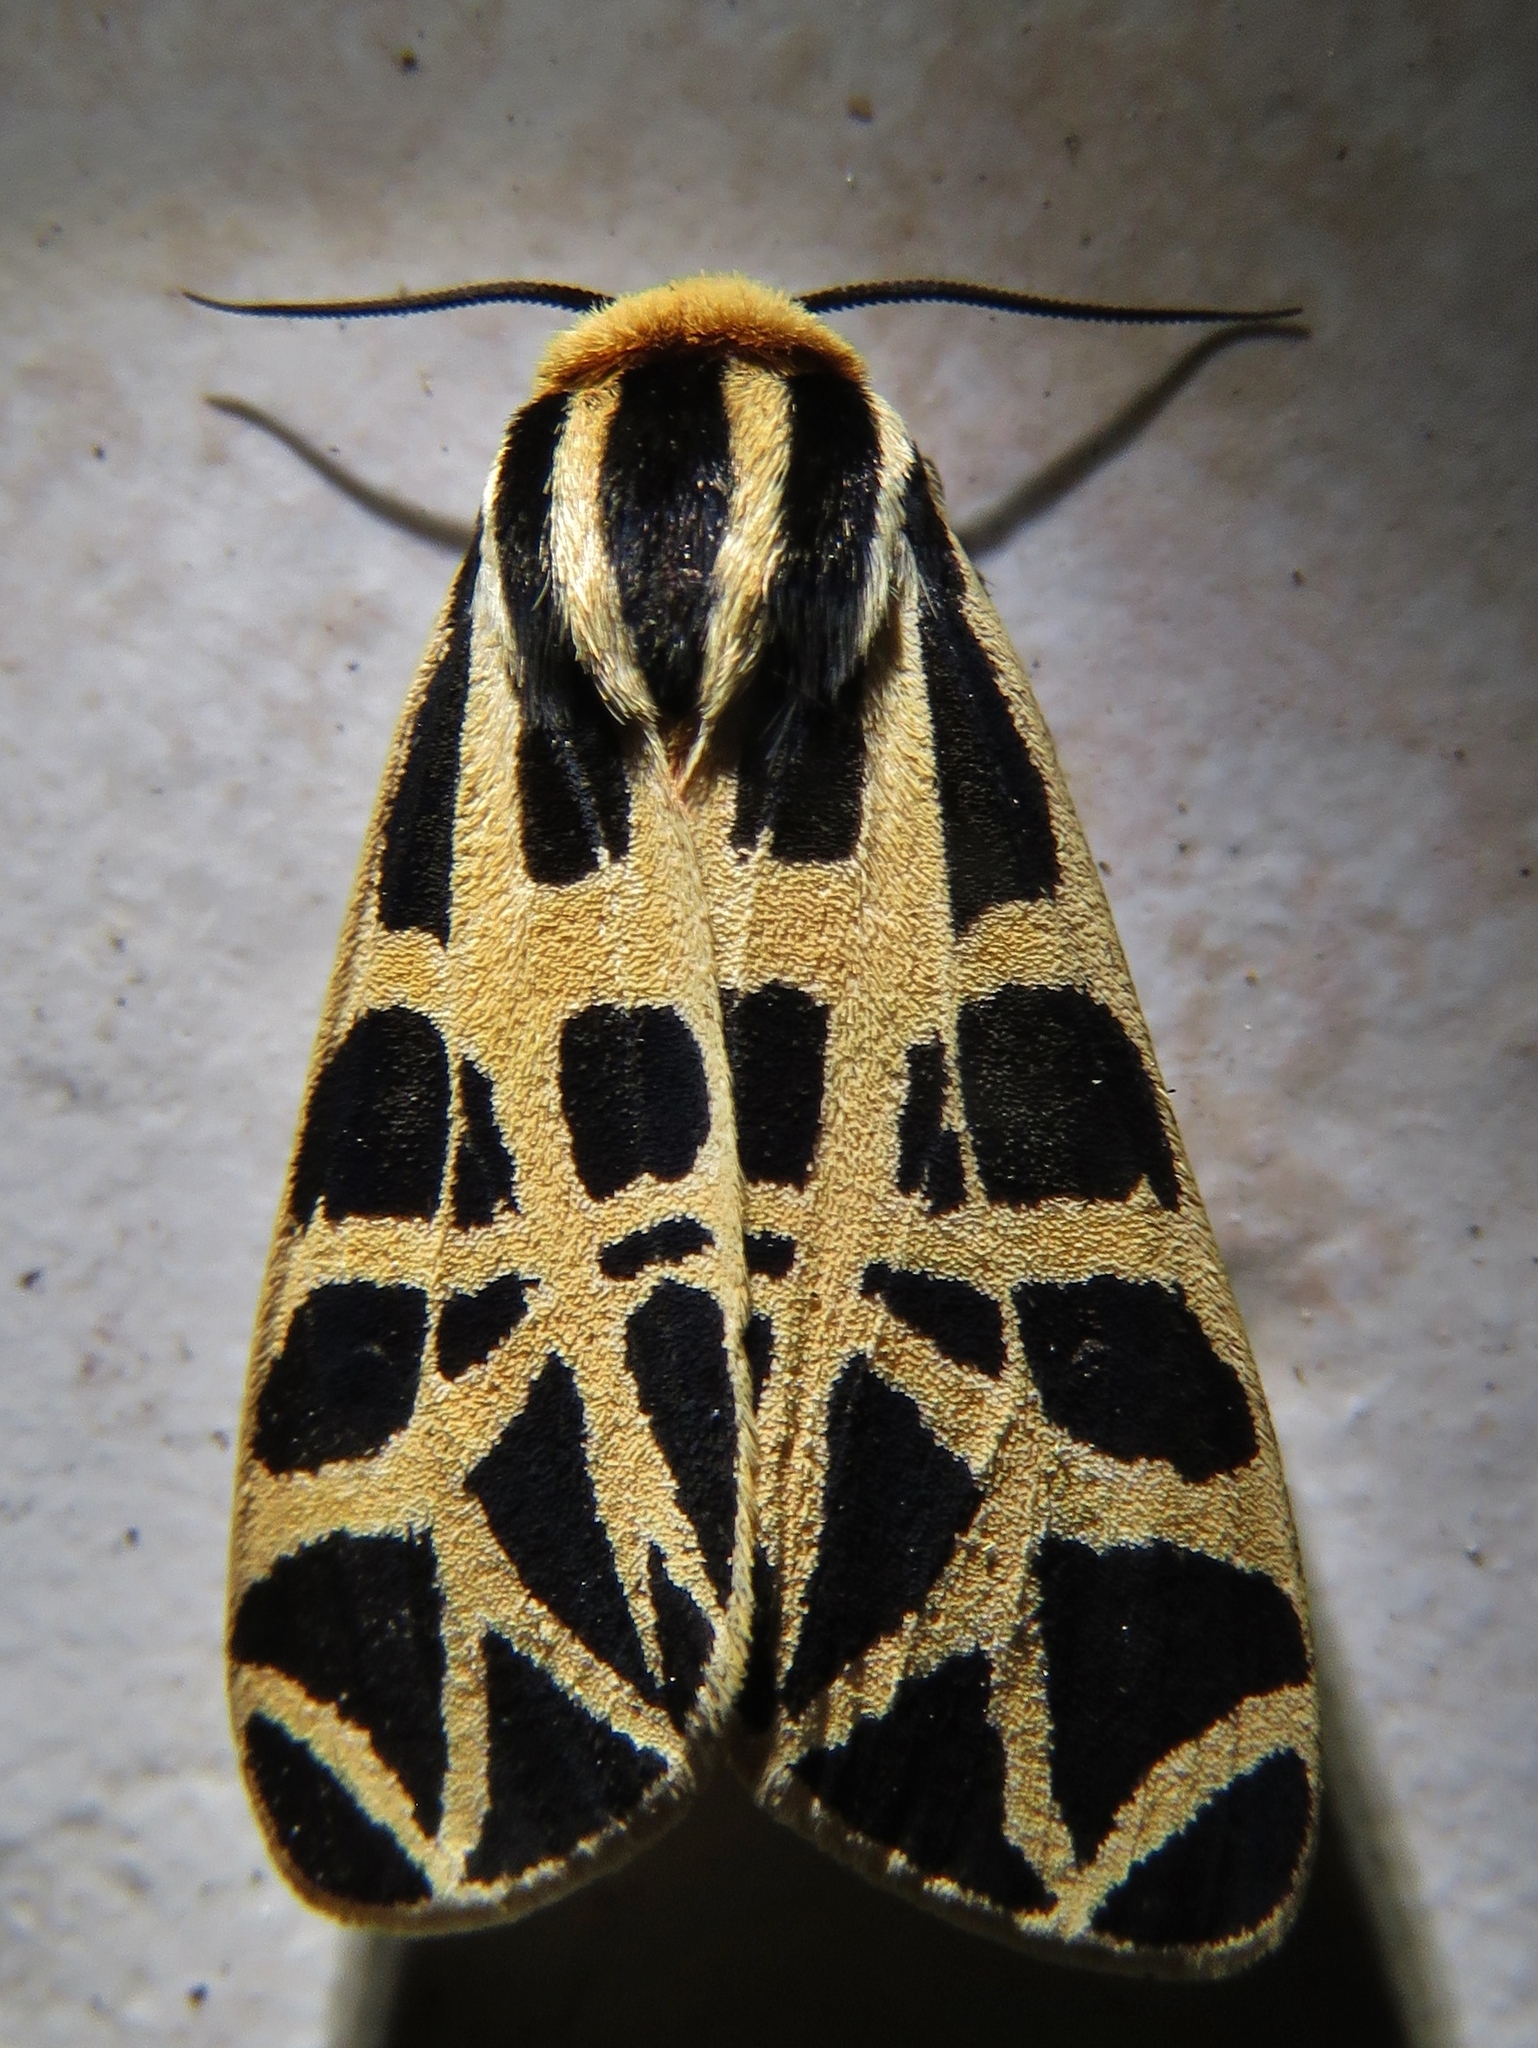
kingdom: Animalia
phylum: Arthropoda
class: Insecta
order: Lepidoptera
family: Erebidae
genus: Apantesis
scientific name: Apantesis
